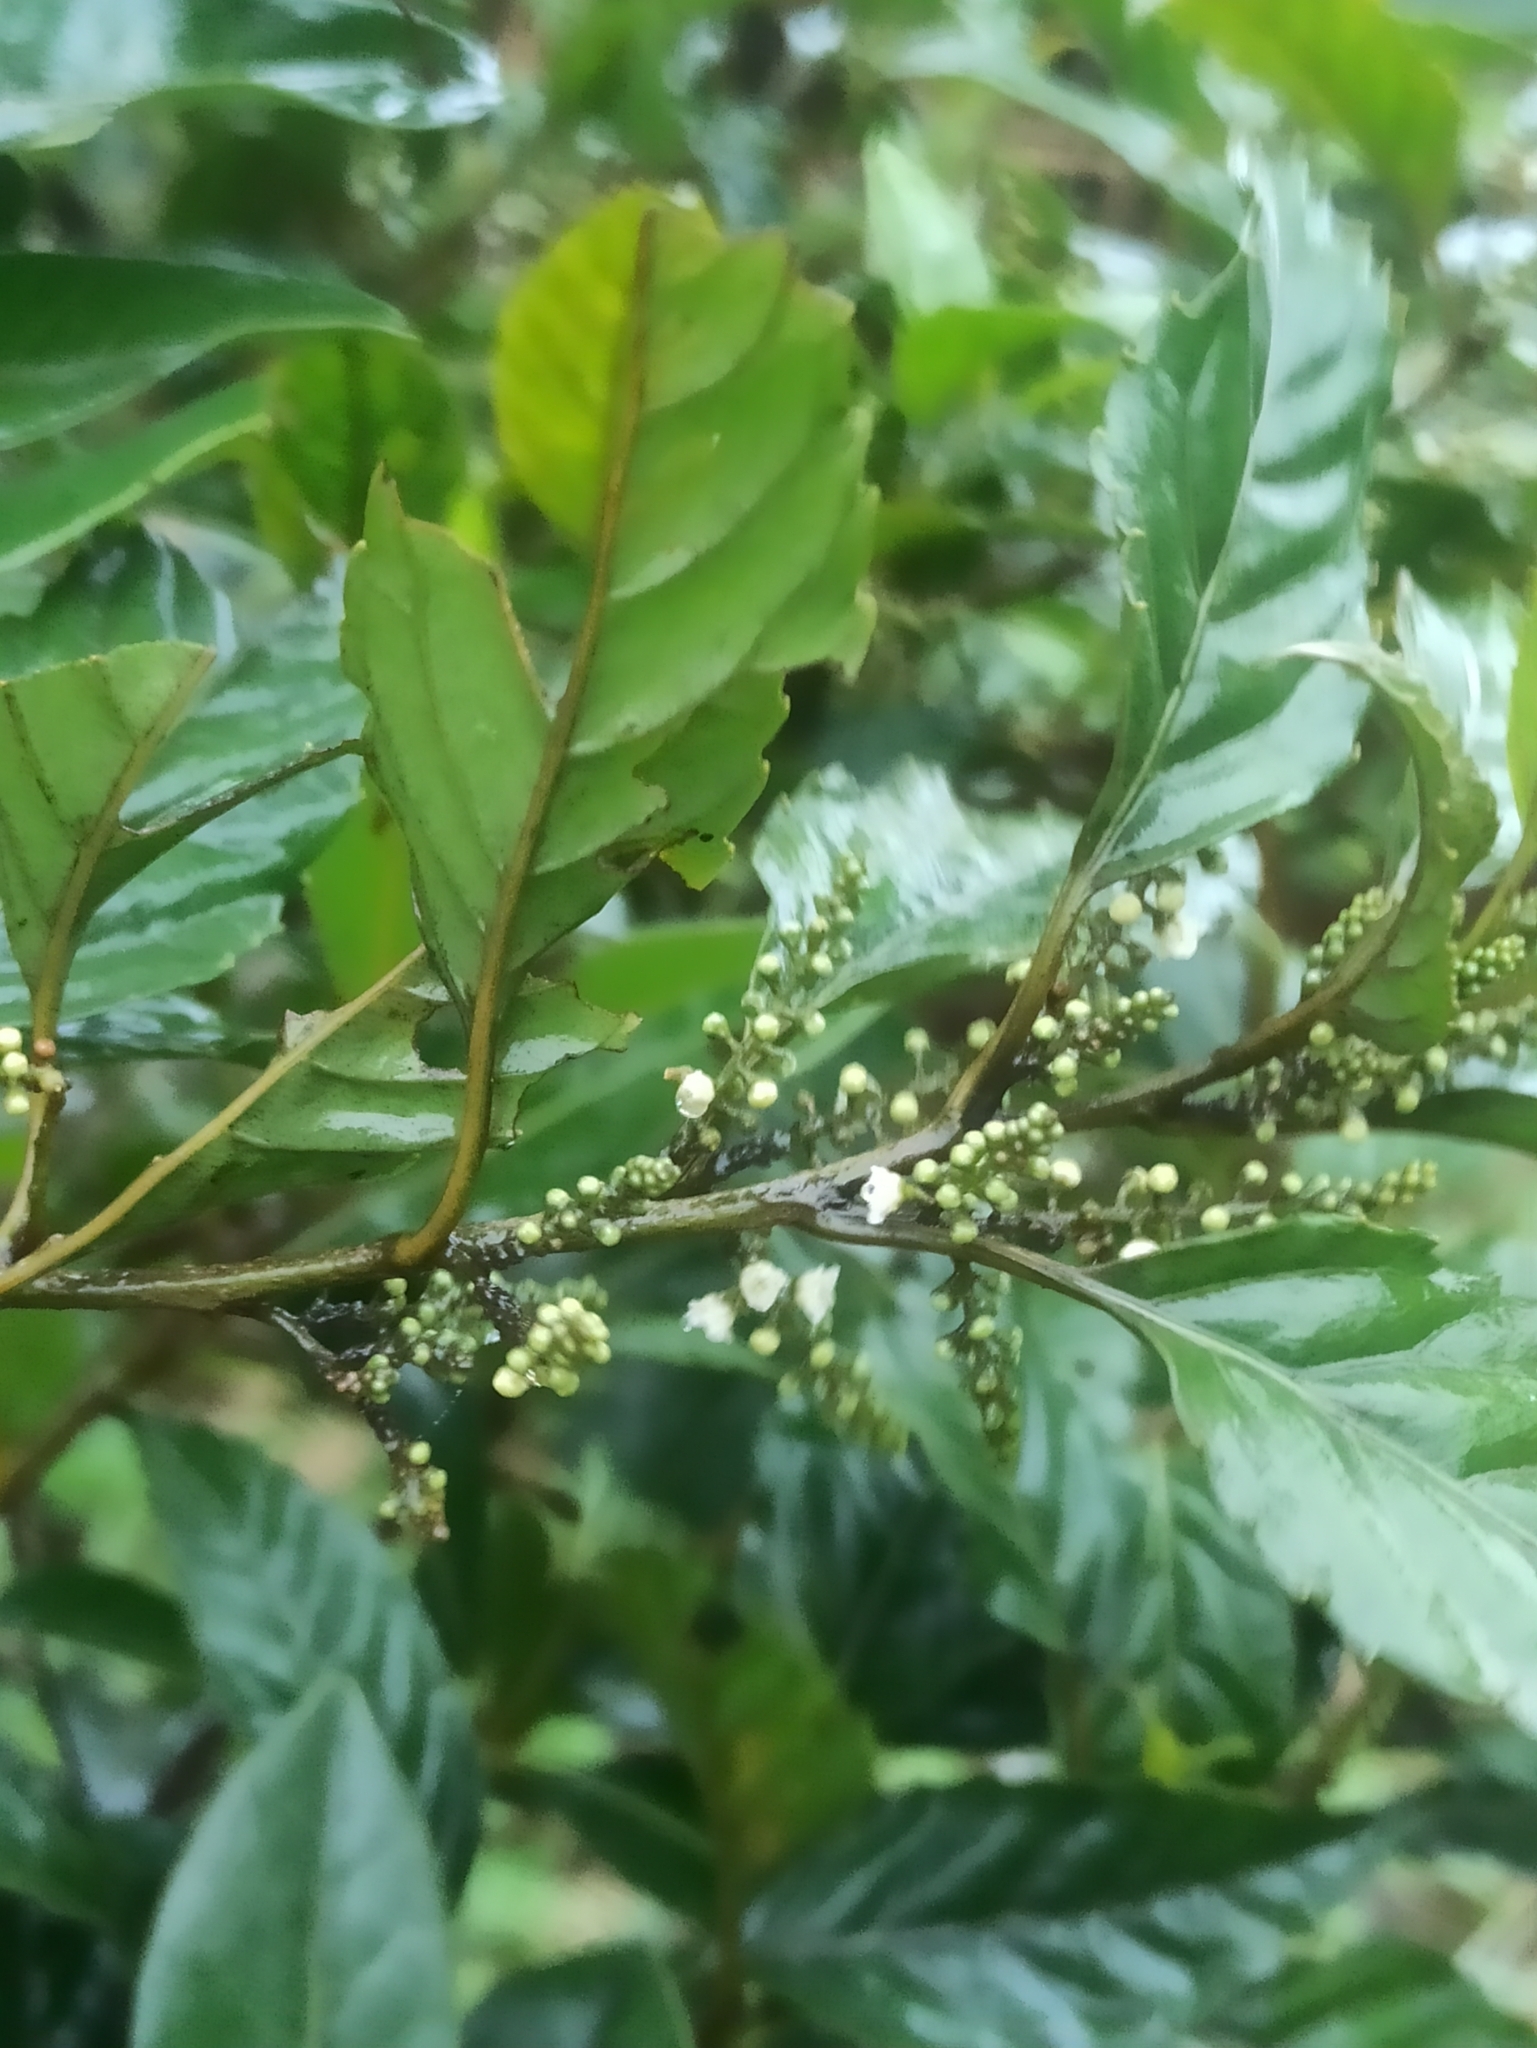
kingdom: Plantae
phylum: Tracheophyta
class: Magnoliopsida
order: Ericales
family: Primulaceae
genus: Maesa
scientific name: Maesa indica
